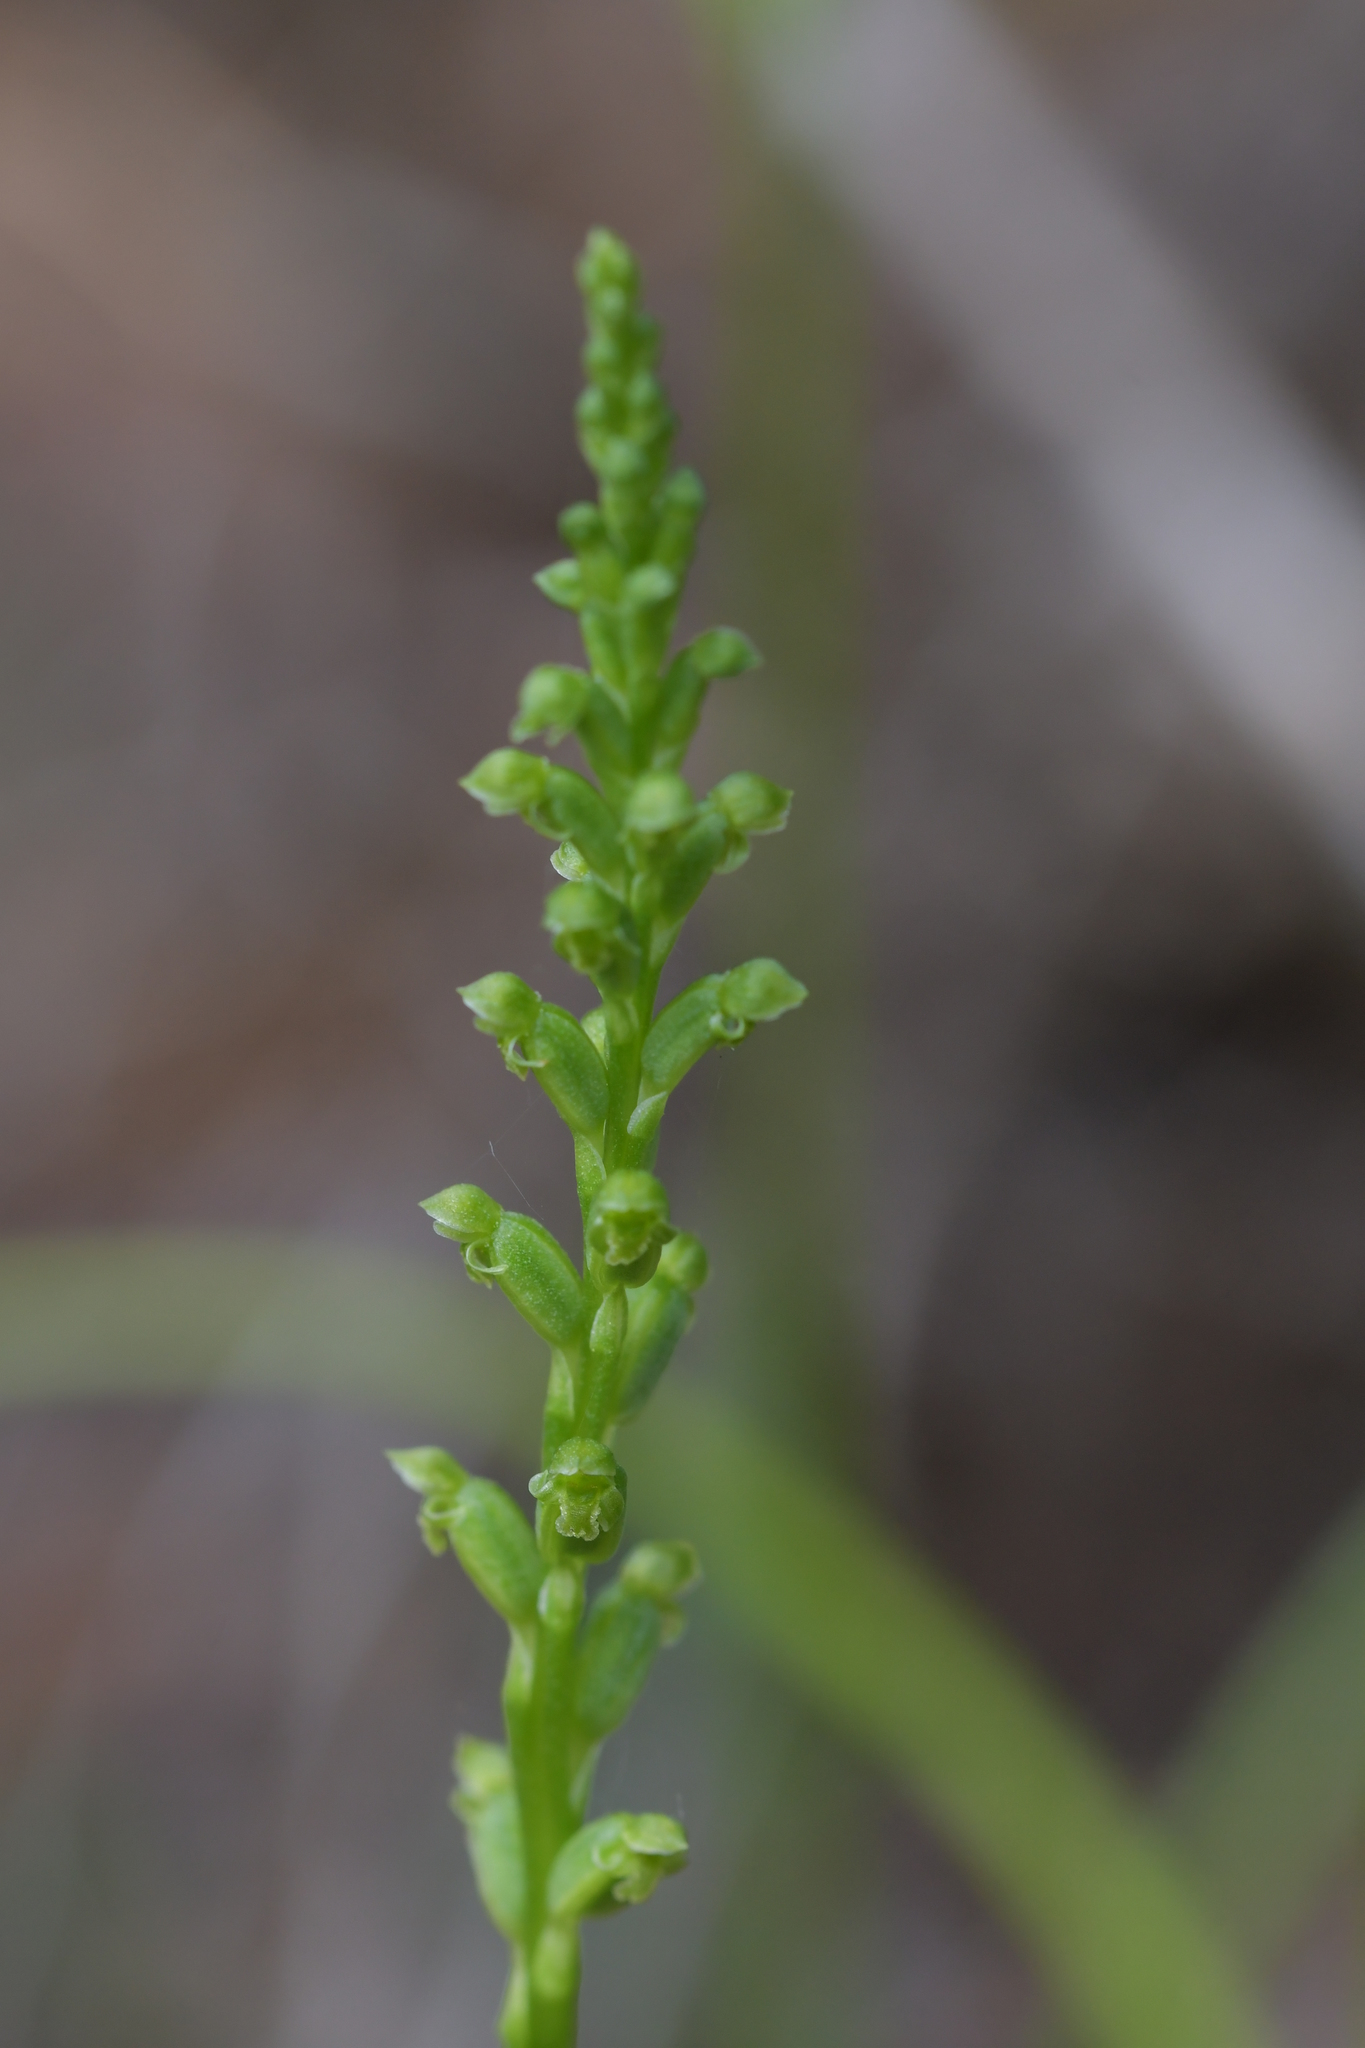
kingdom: Plantae
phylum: Tracheophyta
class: Liliopsida
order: Asparagales
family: Orchidaceae
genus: Microtis
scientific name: Microtis unifolia
